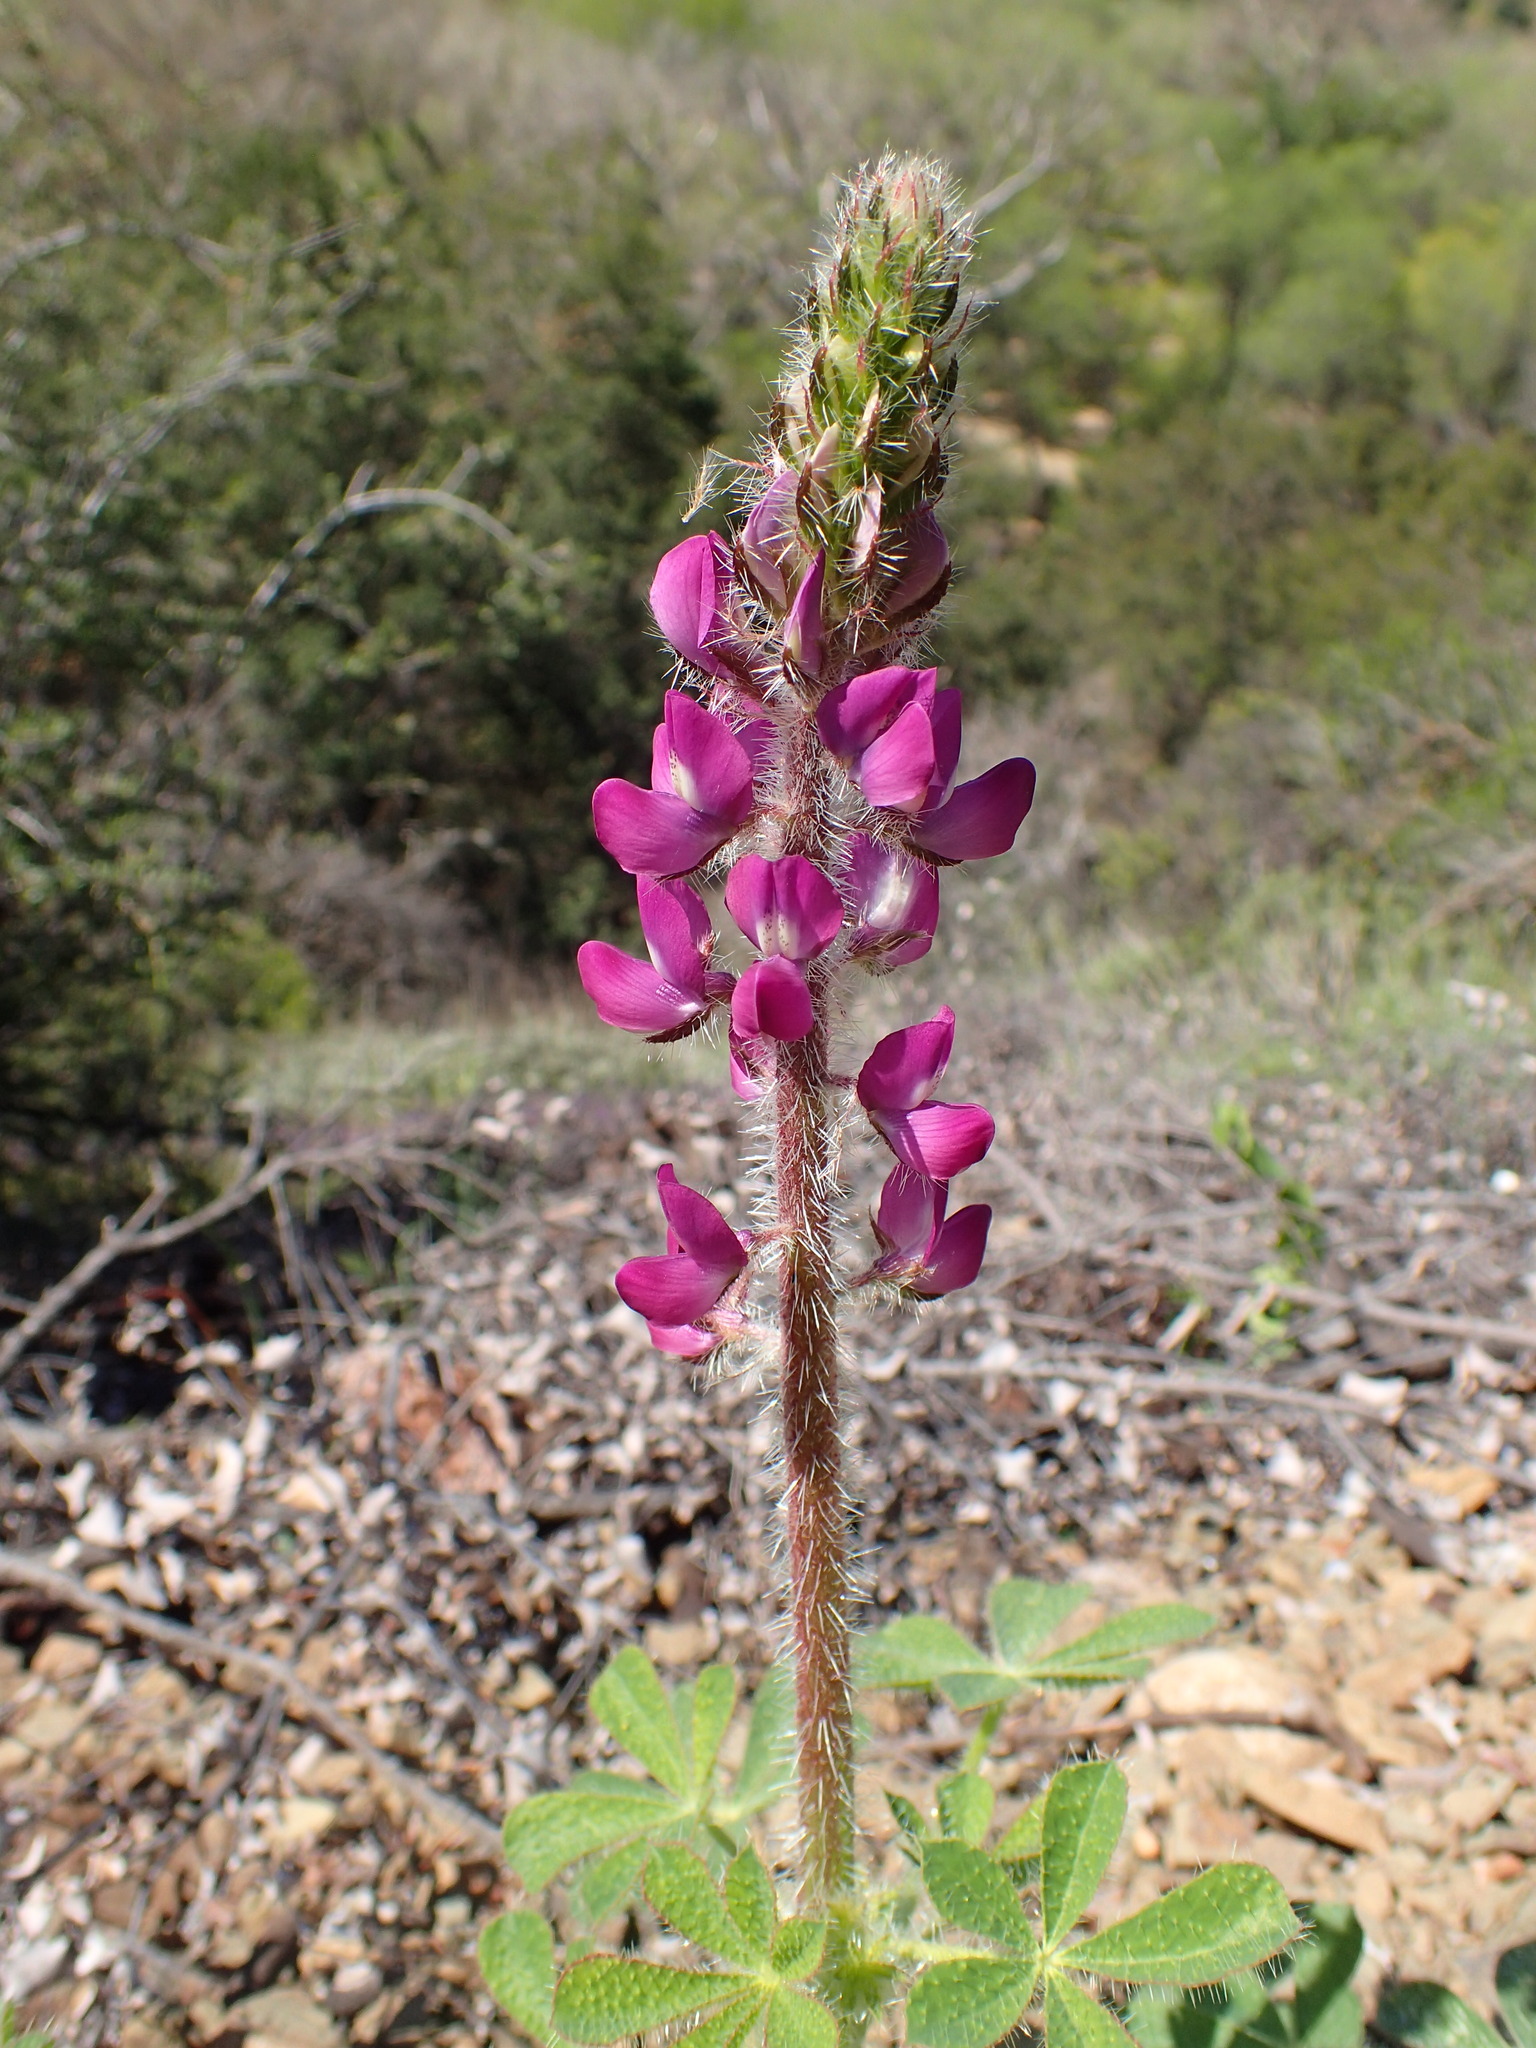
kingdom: Plantae
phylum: Tracheophyta
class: Magnoliopsida
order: Fabales
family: Fabaceae
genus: Lupinus
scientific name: Lupinus hirsutissimus
